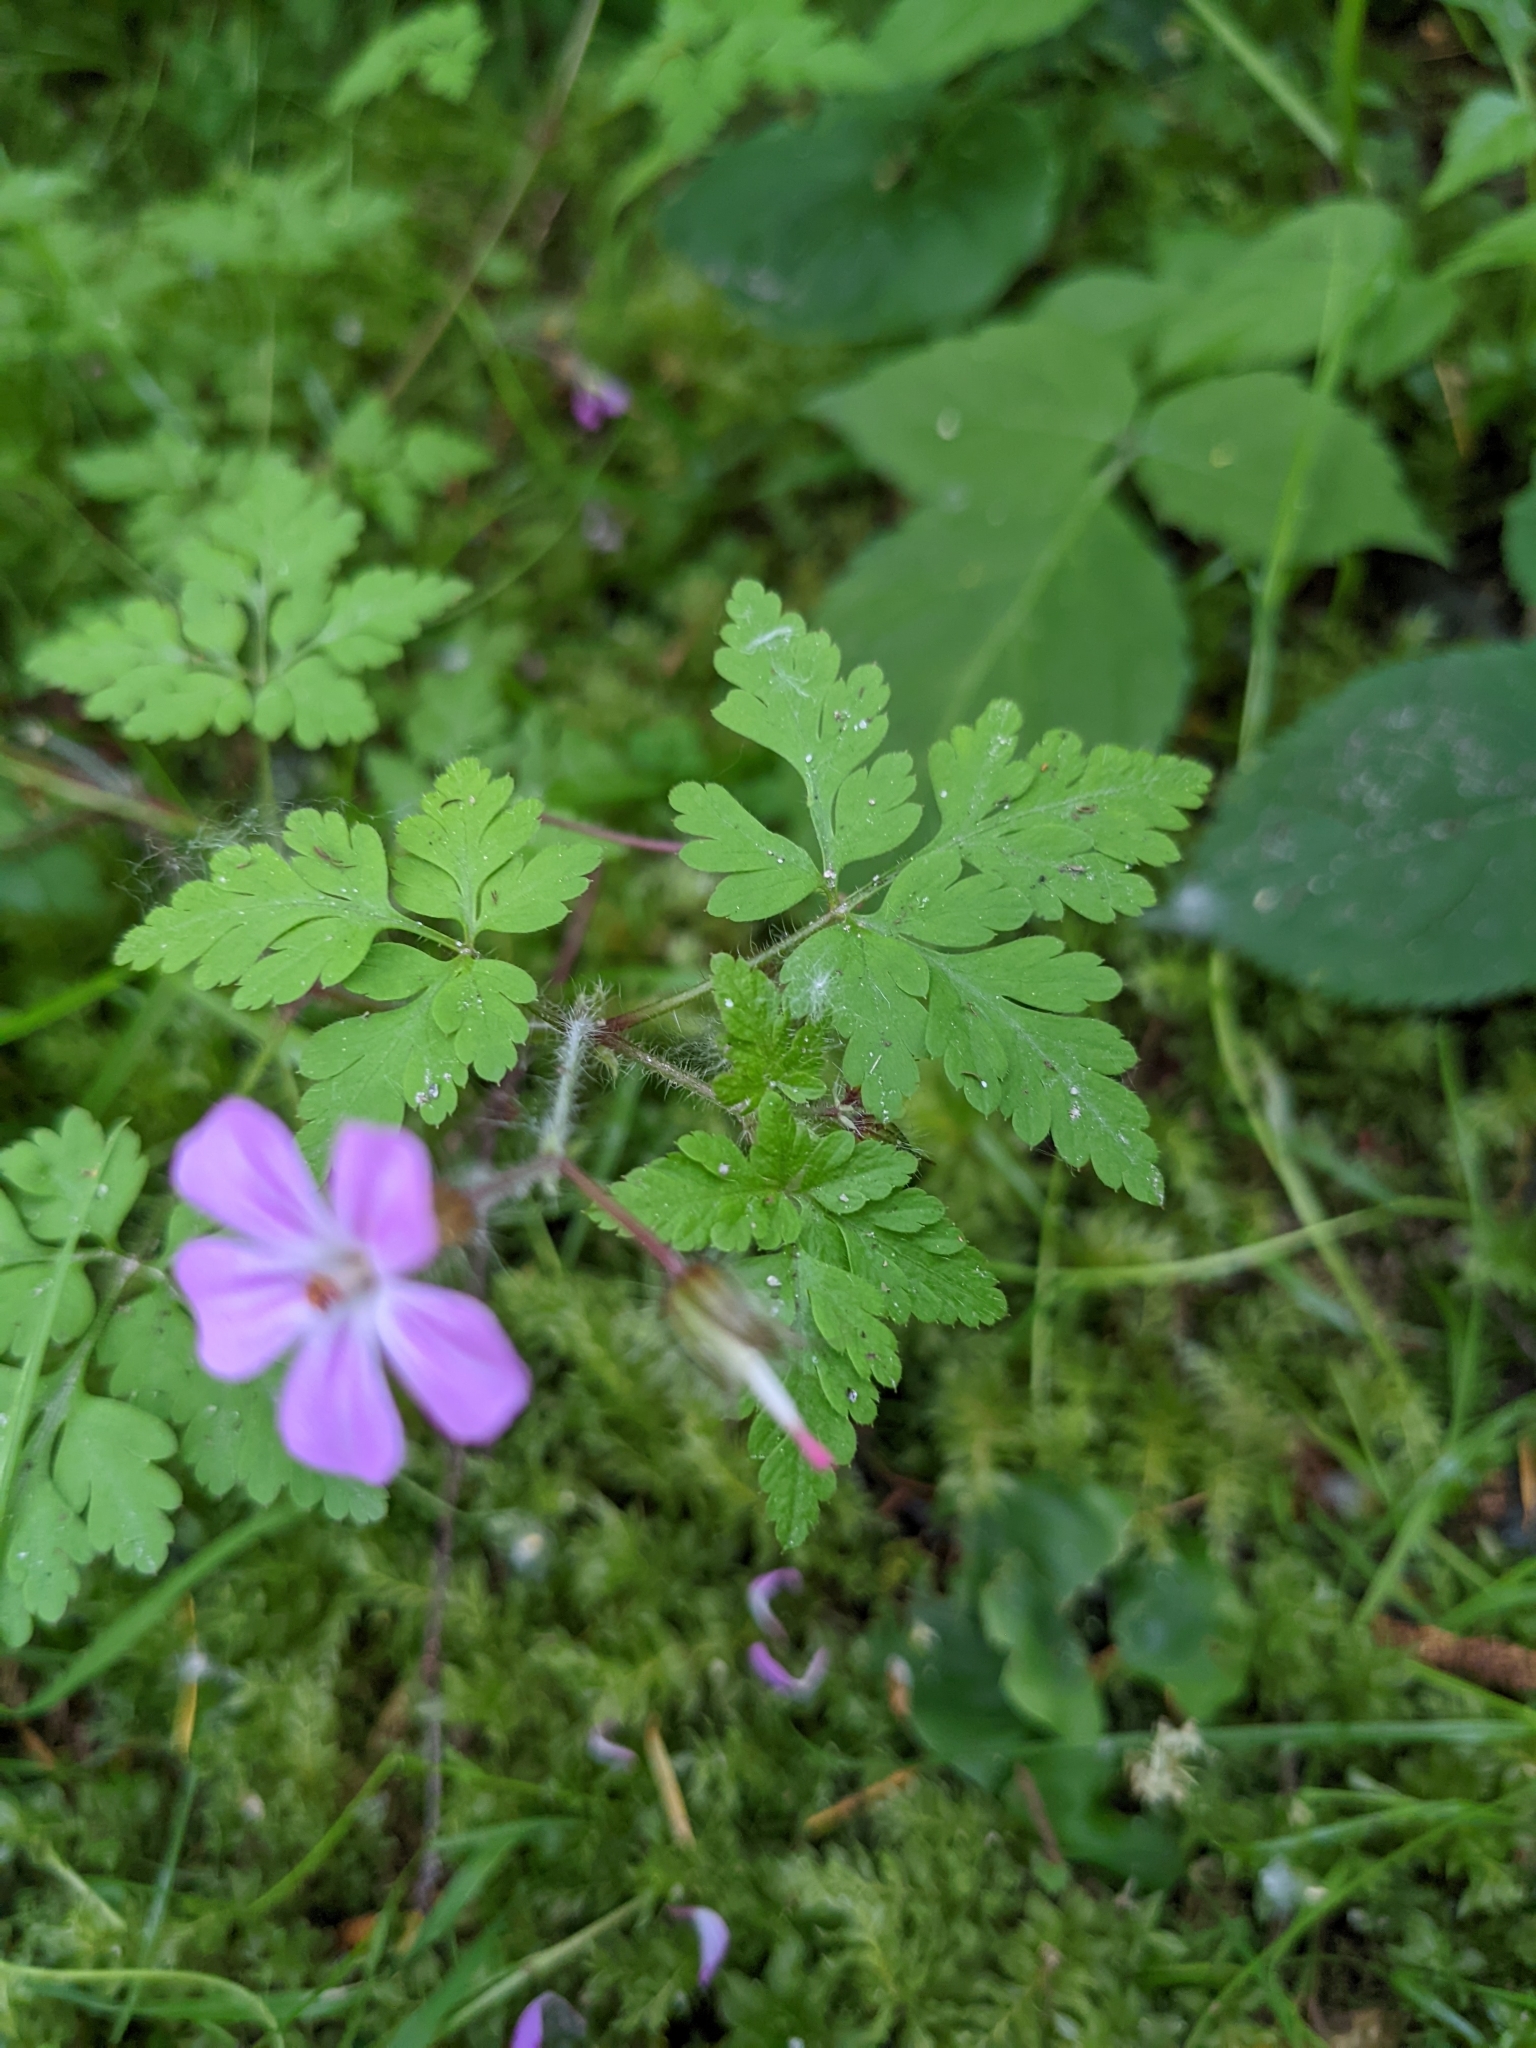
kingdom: Plantae
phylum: Tracheophyta
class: Magnoliopsida
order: Geraniales
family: Geraniaceae
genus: Geranium
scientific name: Geranium robertianum
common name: Herb-robert
